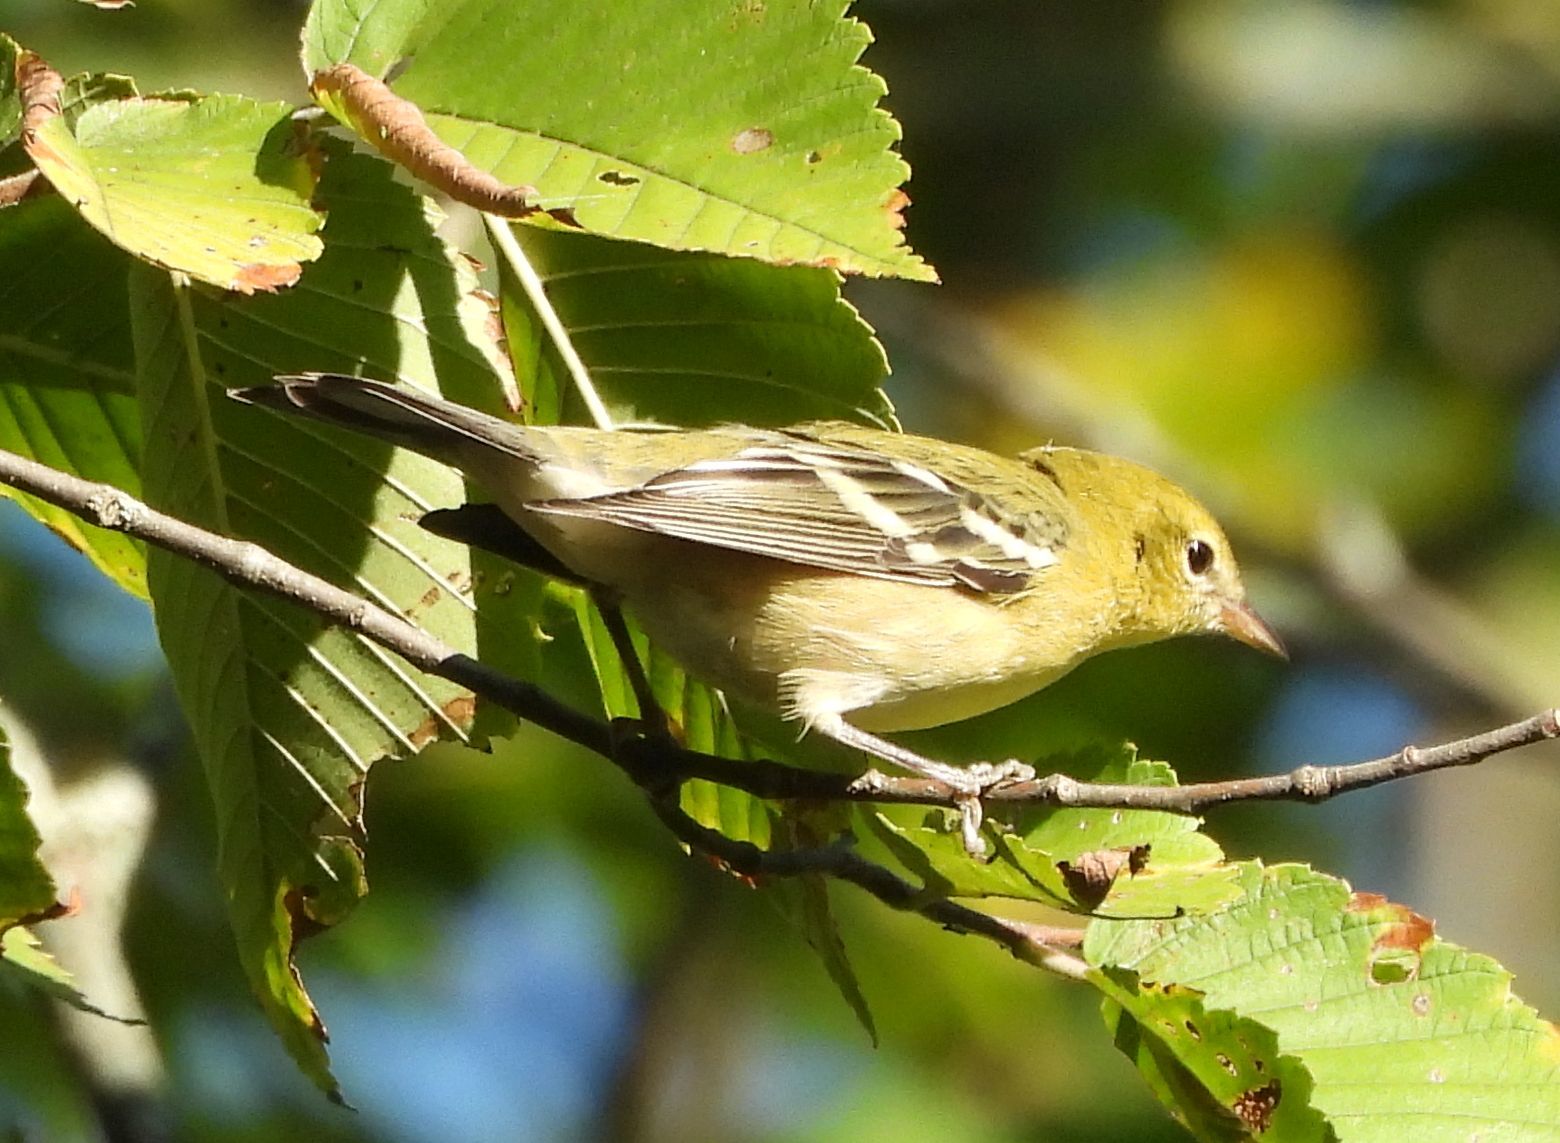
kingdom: Animalia
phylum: Chordata
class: Aves
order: Passeriformes
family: Parulidae
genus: Setophaga
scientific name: Setophaga castanea
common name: Bay-breasted warbler
